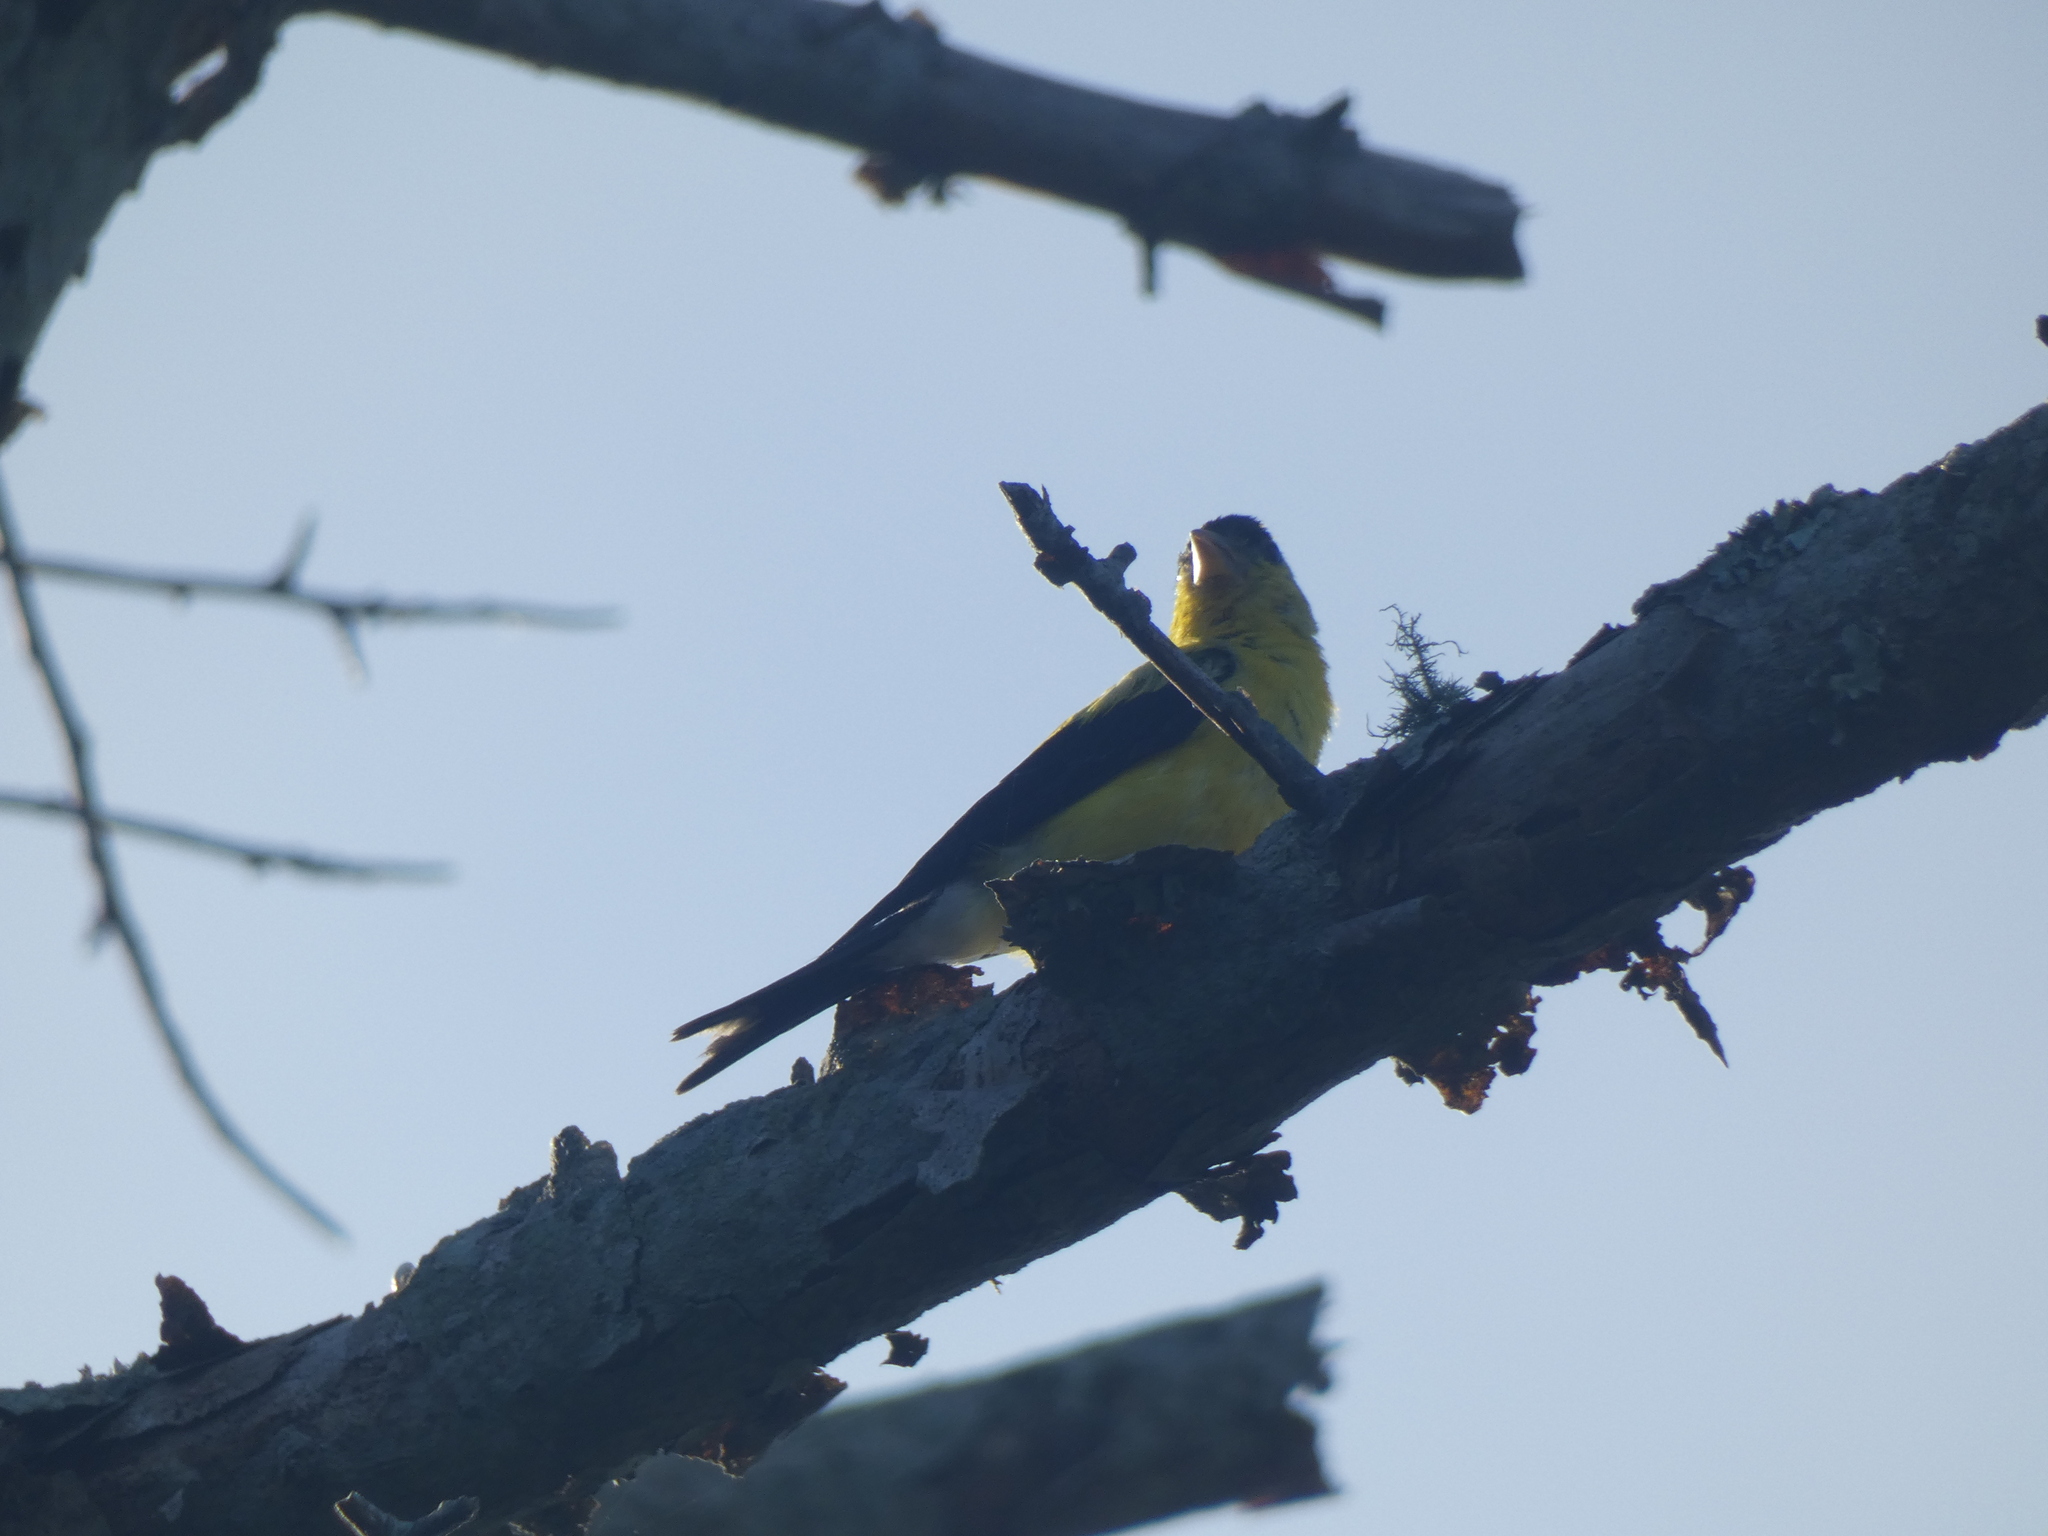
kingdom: Animalia
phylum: Chordata
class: Aves
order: Passeriformes
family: Fringillidae
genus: Spinus
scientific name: Spinus tristis
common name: American goldfinch
